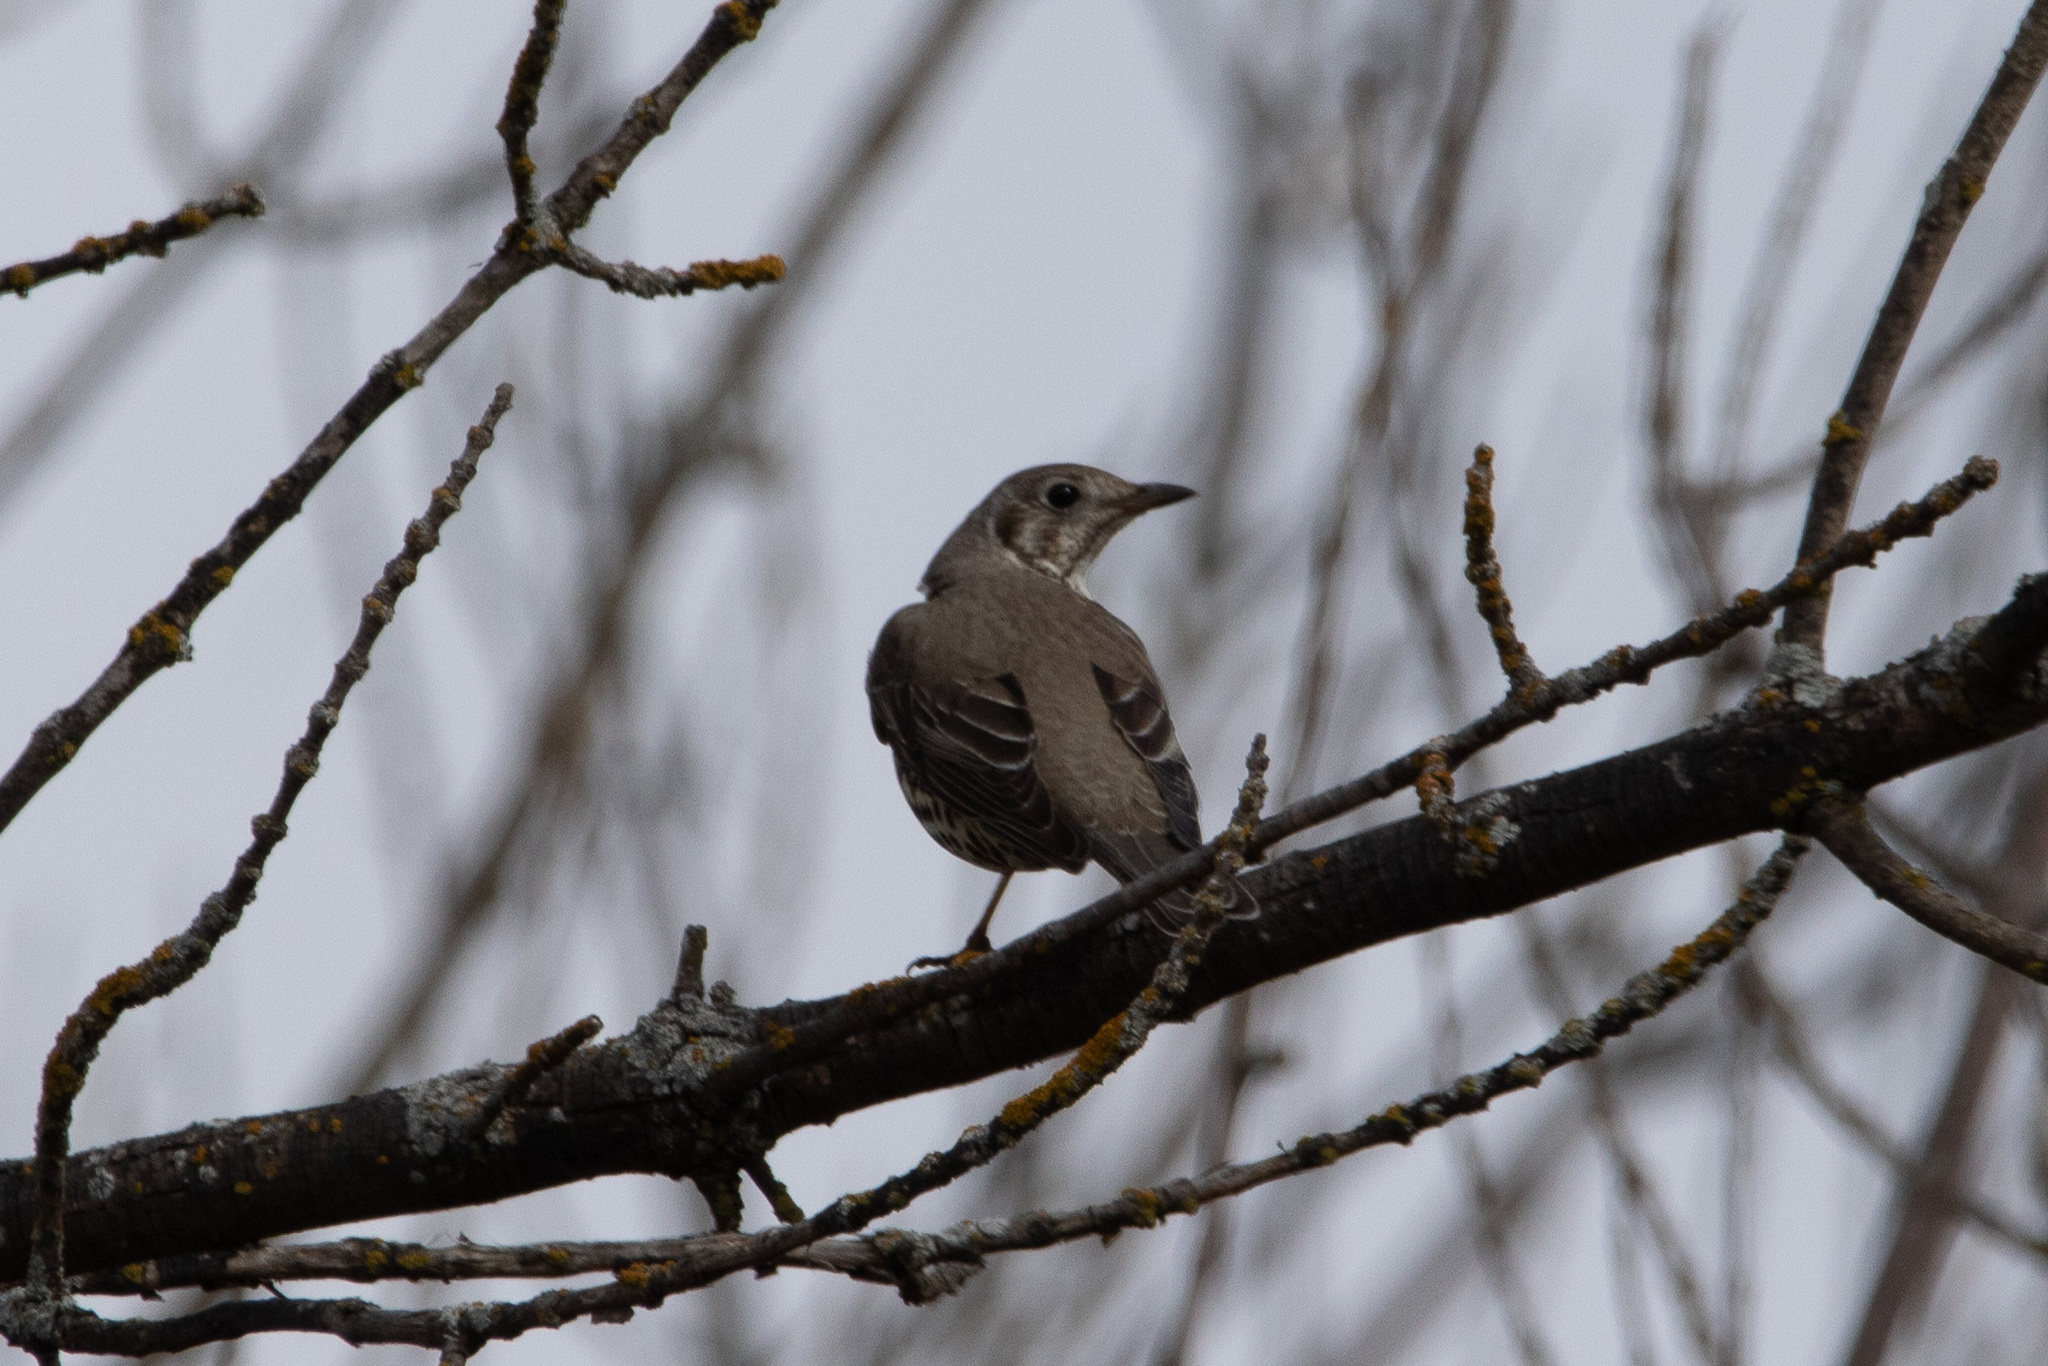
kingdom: Animalia
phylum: Chordata
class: Aves
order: Passeriformes
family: Turdidae
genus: Turdus
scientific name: Turdus viscivorus
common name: Mistle thrush
